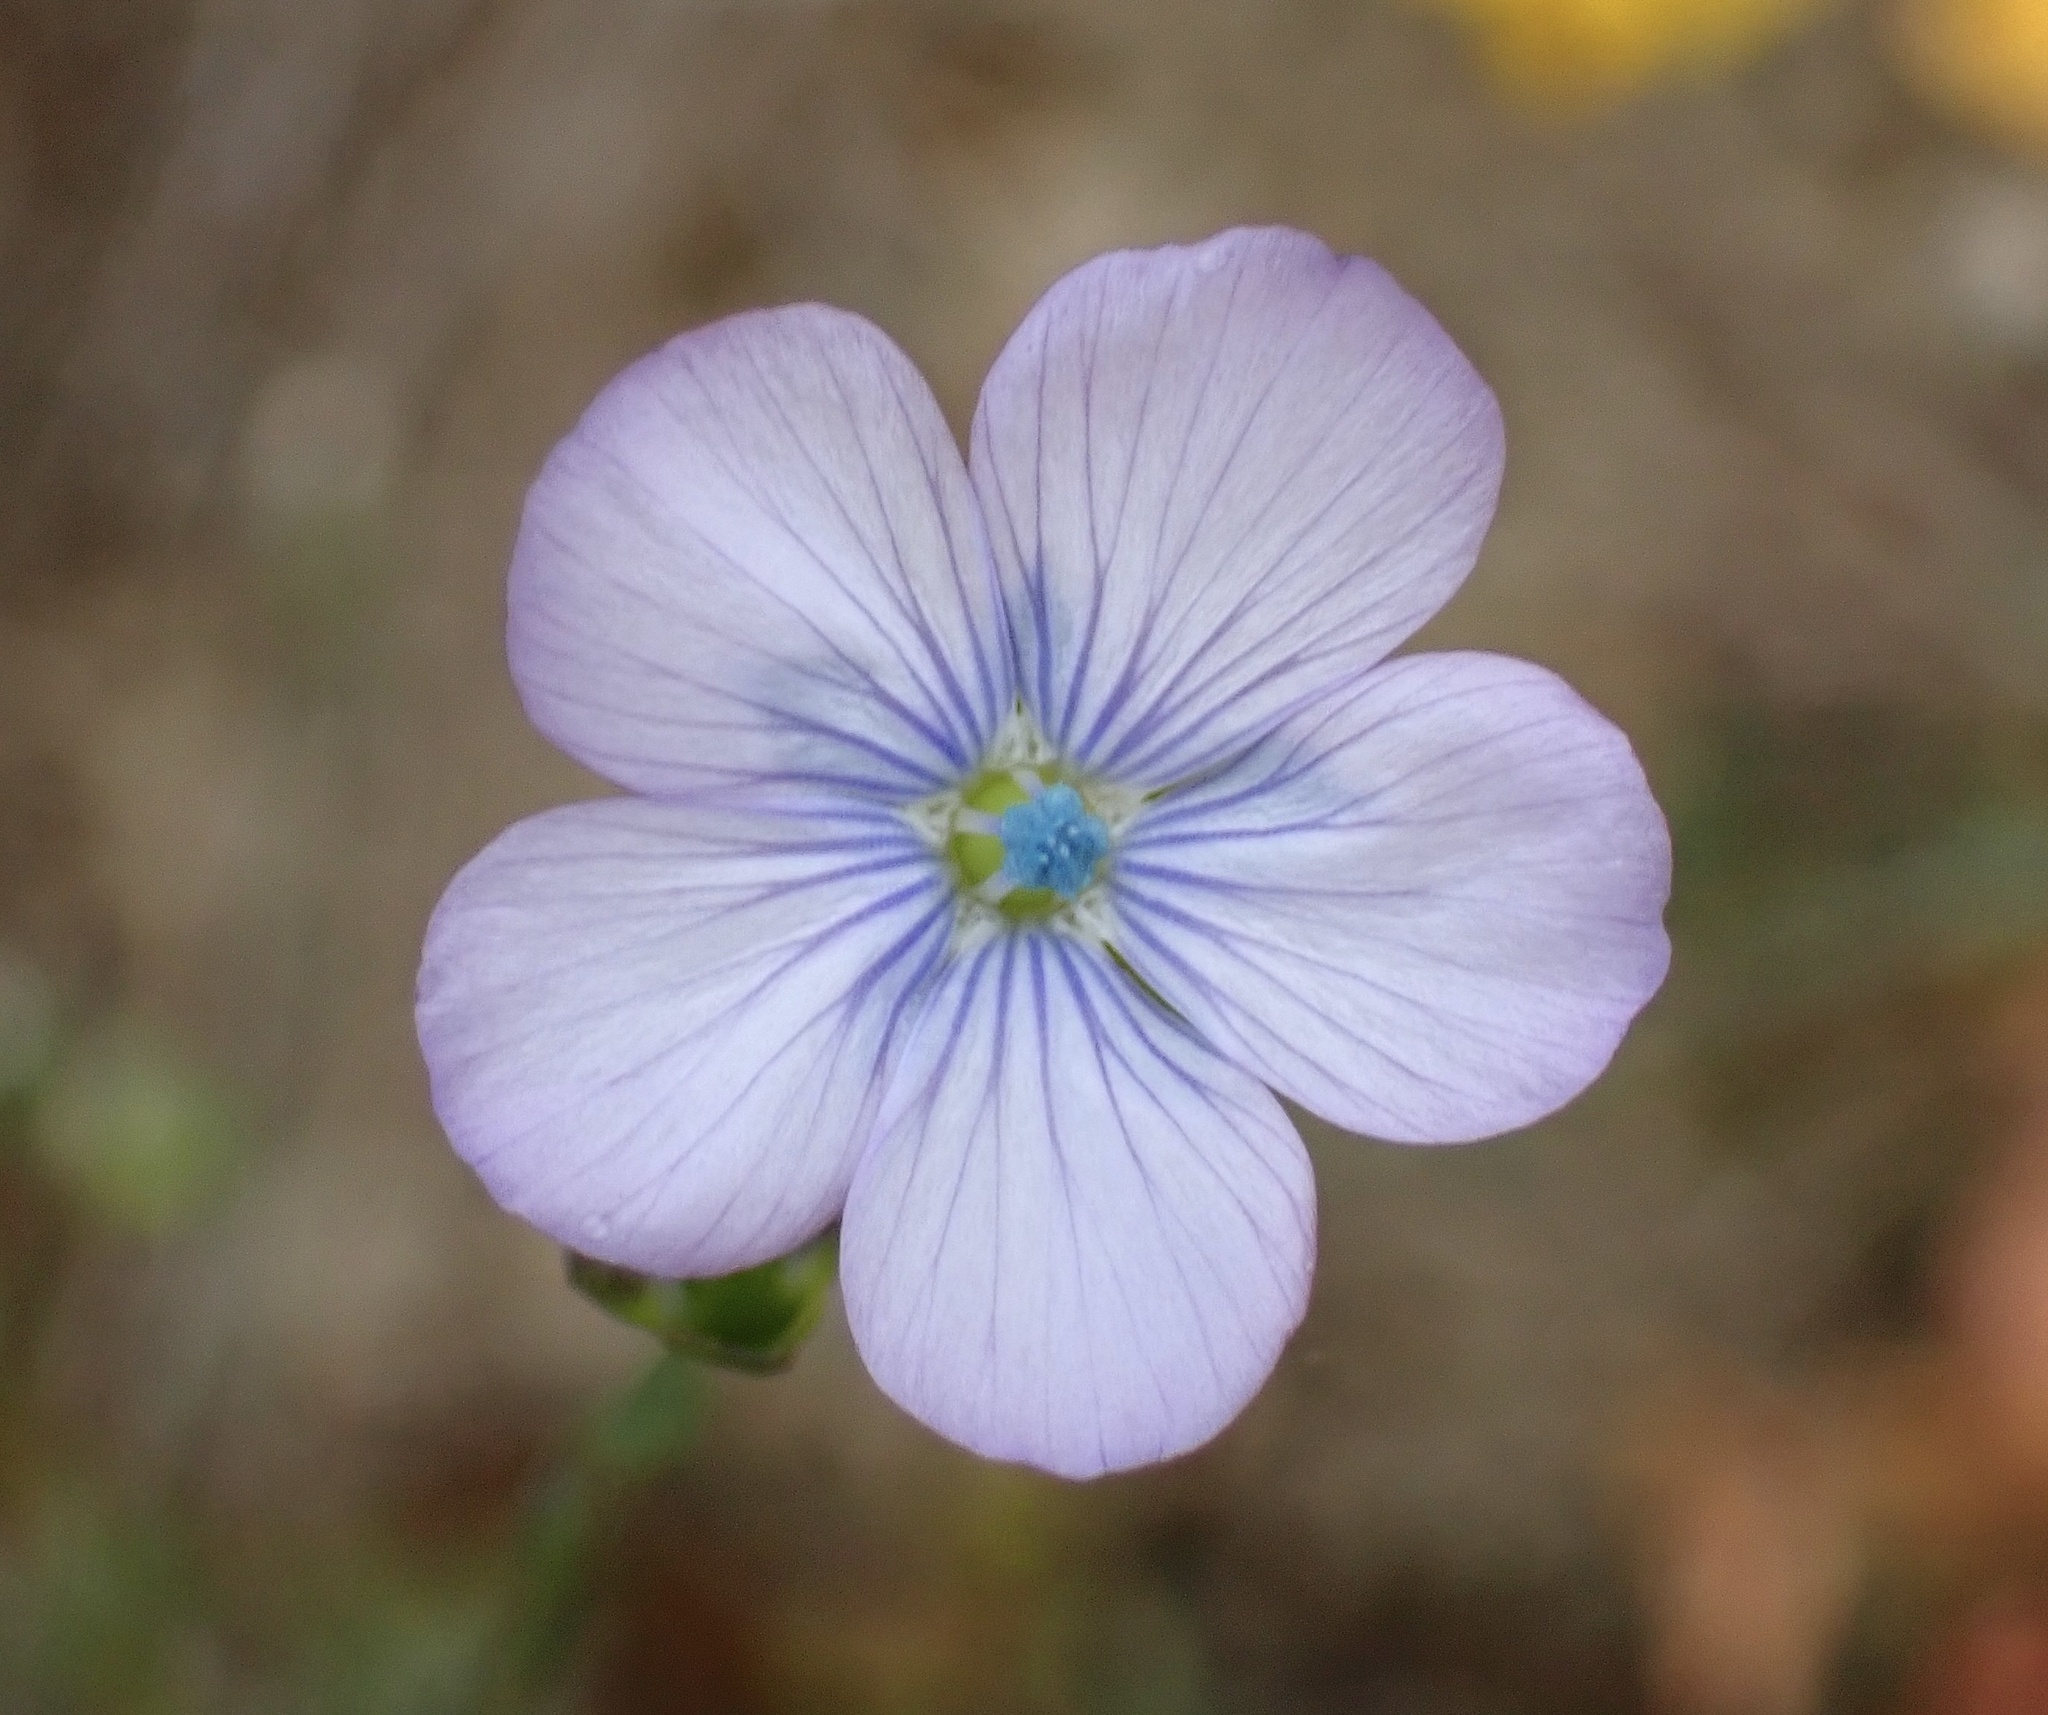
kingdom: Plantae
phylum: Tracheophyta
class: Magnoliopsida
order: Malpighiales
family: Linaceae
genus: Linum
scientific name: Linum bienne
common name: Pale flax
